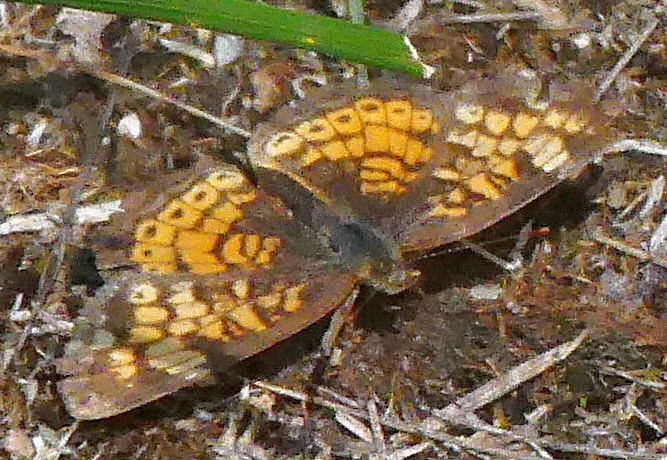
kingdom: Animalia
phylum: Arthropoda
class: Insecta
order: Lepidoptera
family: Nymphalidae
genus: Phyciodes
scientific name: Phyciodes tharos
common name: Pearl crescent
